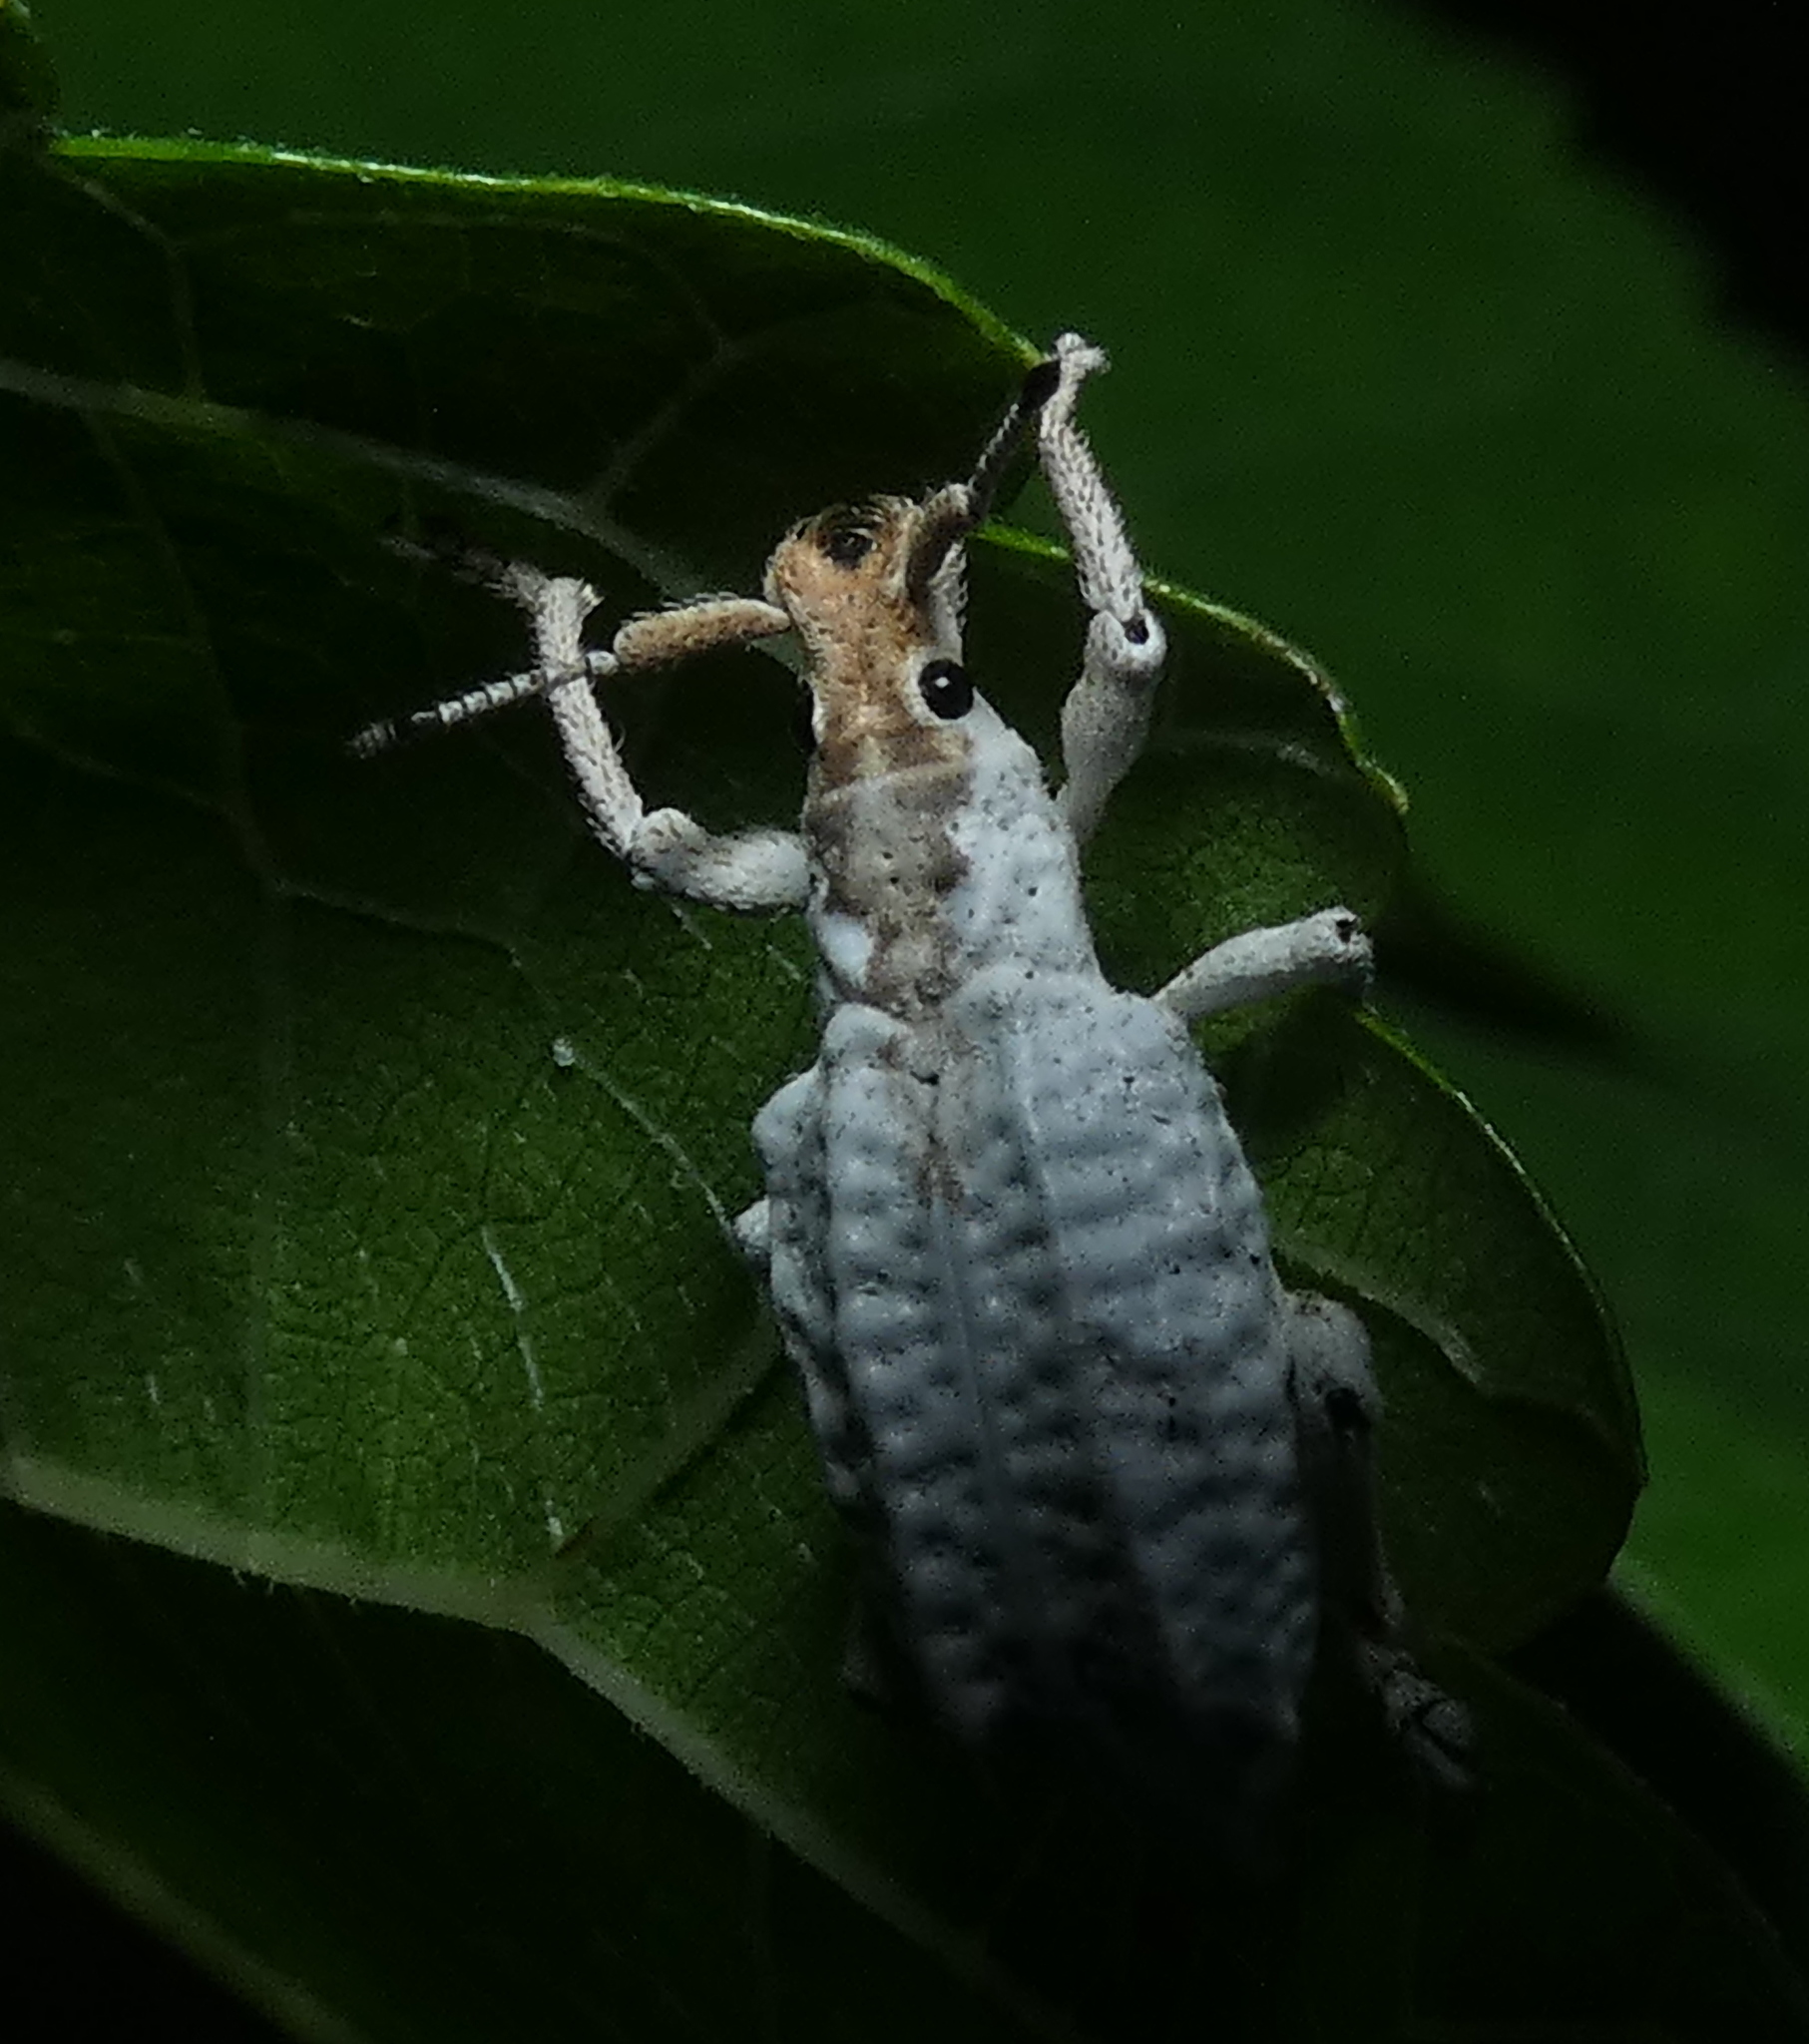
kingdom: Animalia
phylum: Arthropoda
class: Insecta
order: Coleoptera
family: Curculionidae
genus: Compsus
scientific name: Compsus niveus
